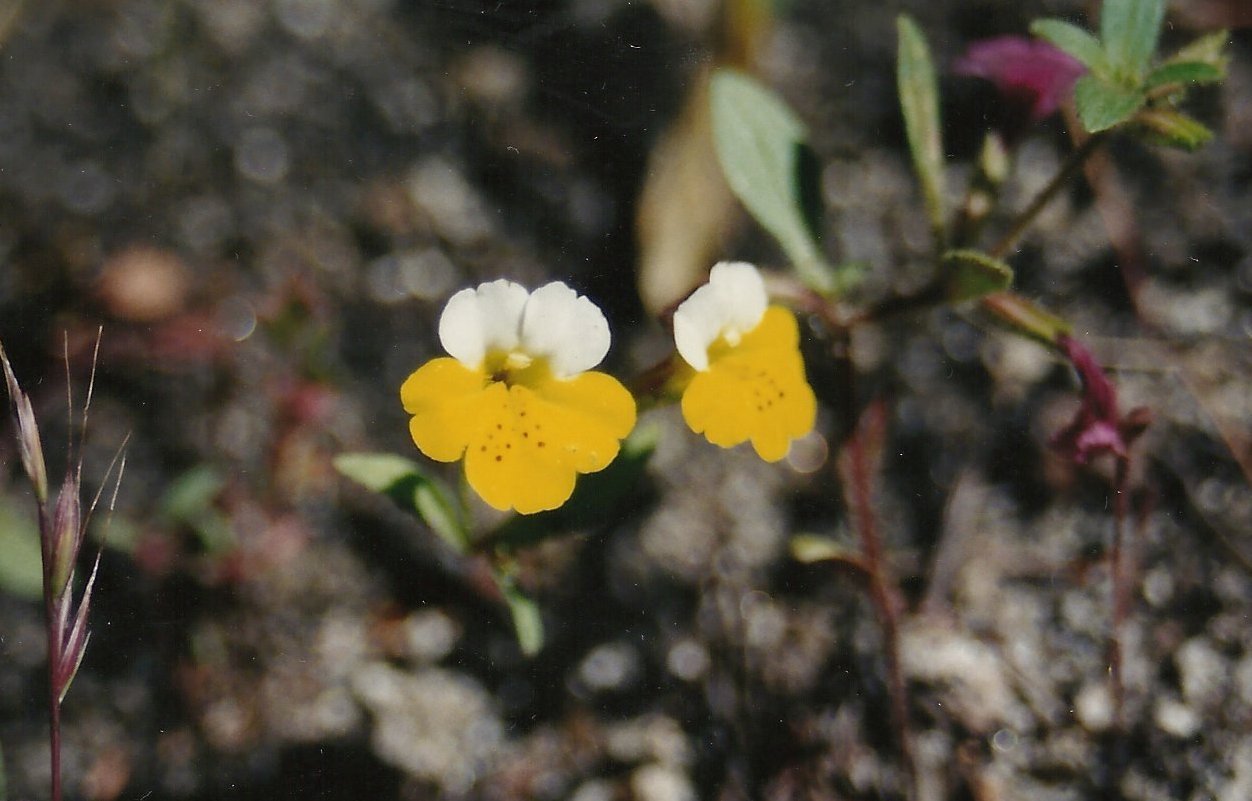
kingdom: Plantae
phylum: Tracheophyta
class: Magnoliopsida
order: Lamiales
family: Phrymaceae
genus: Erythranthe
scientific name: Erythranthe bicolor
